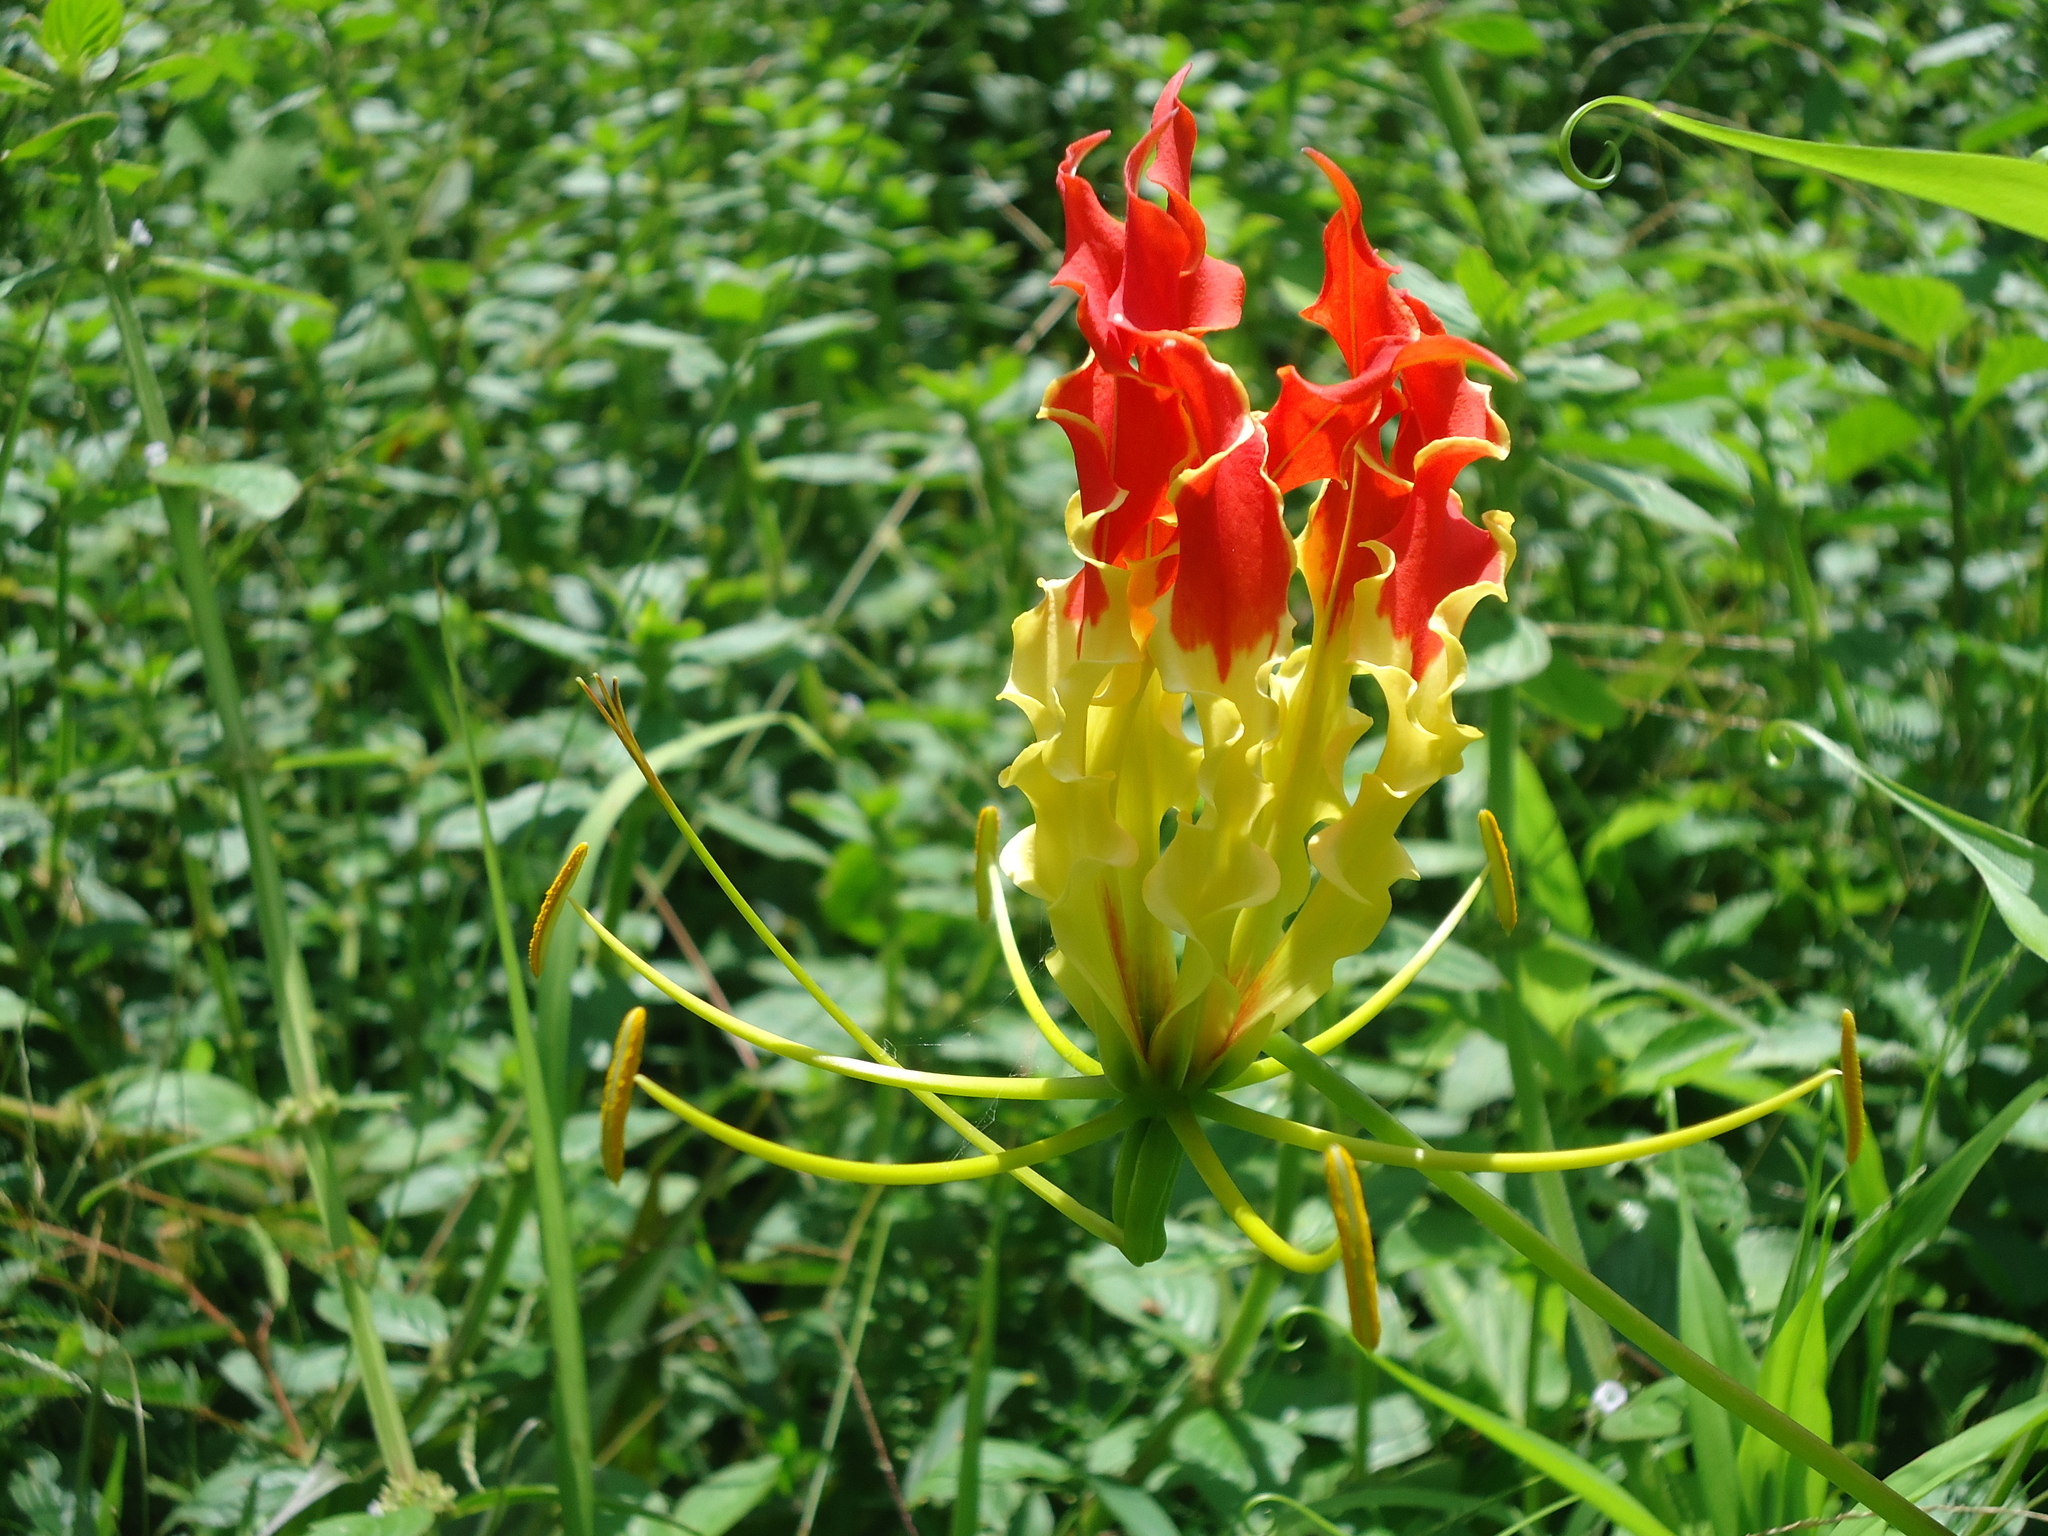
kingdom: Plantae
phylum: Tracheophyta
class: Liliopsida
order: Liliales
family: Colchicaceae
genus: Gloriosa
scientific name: Gloriosa superba
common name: Flame lily
